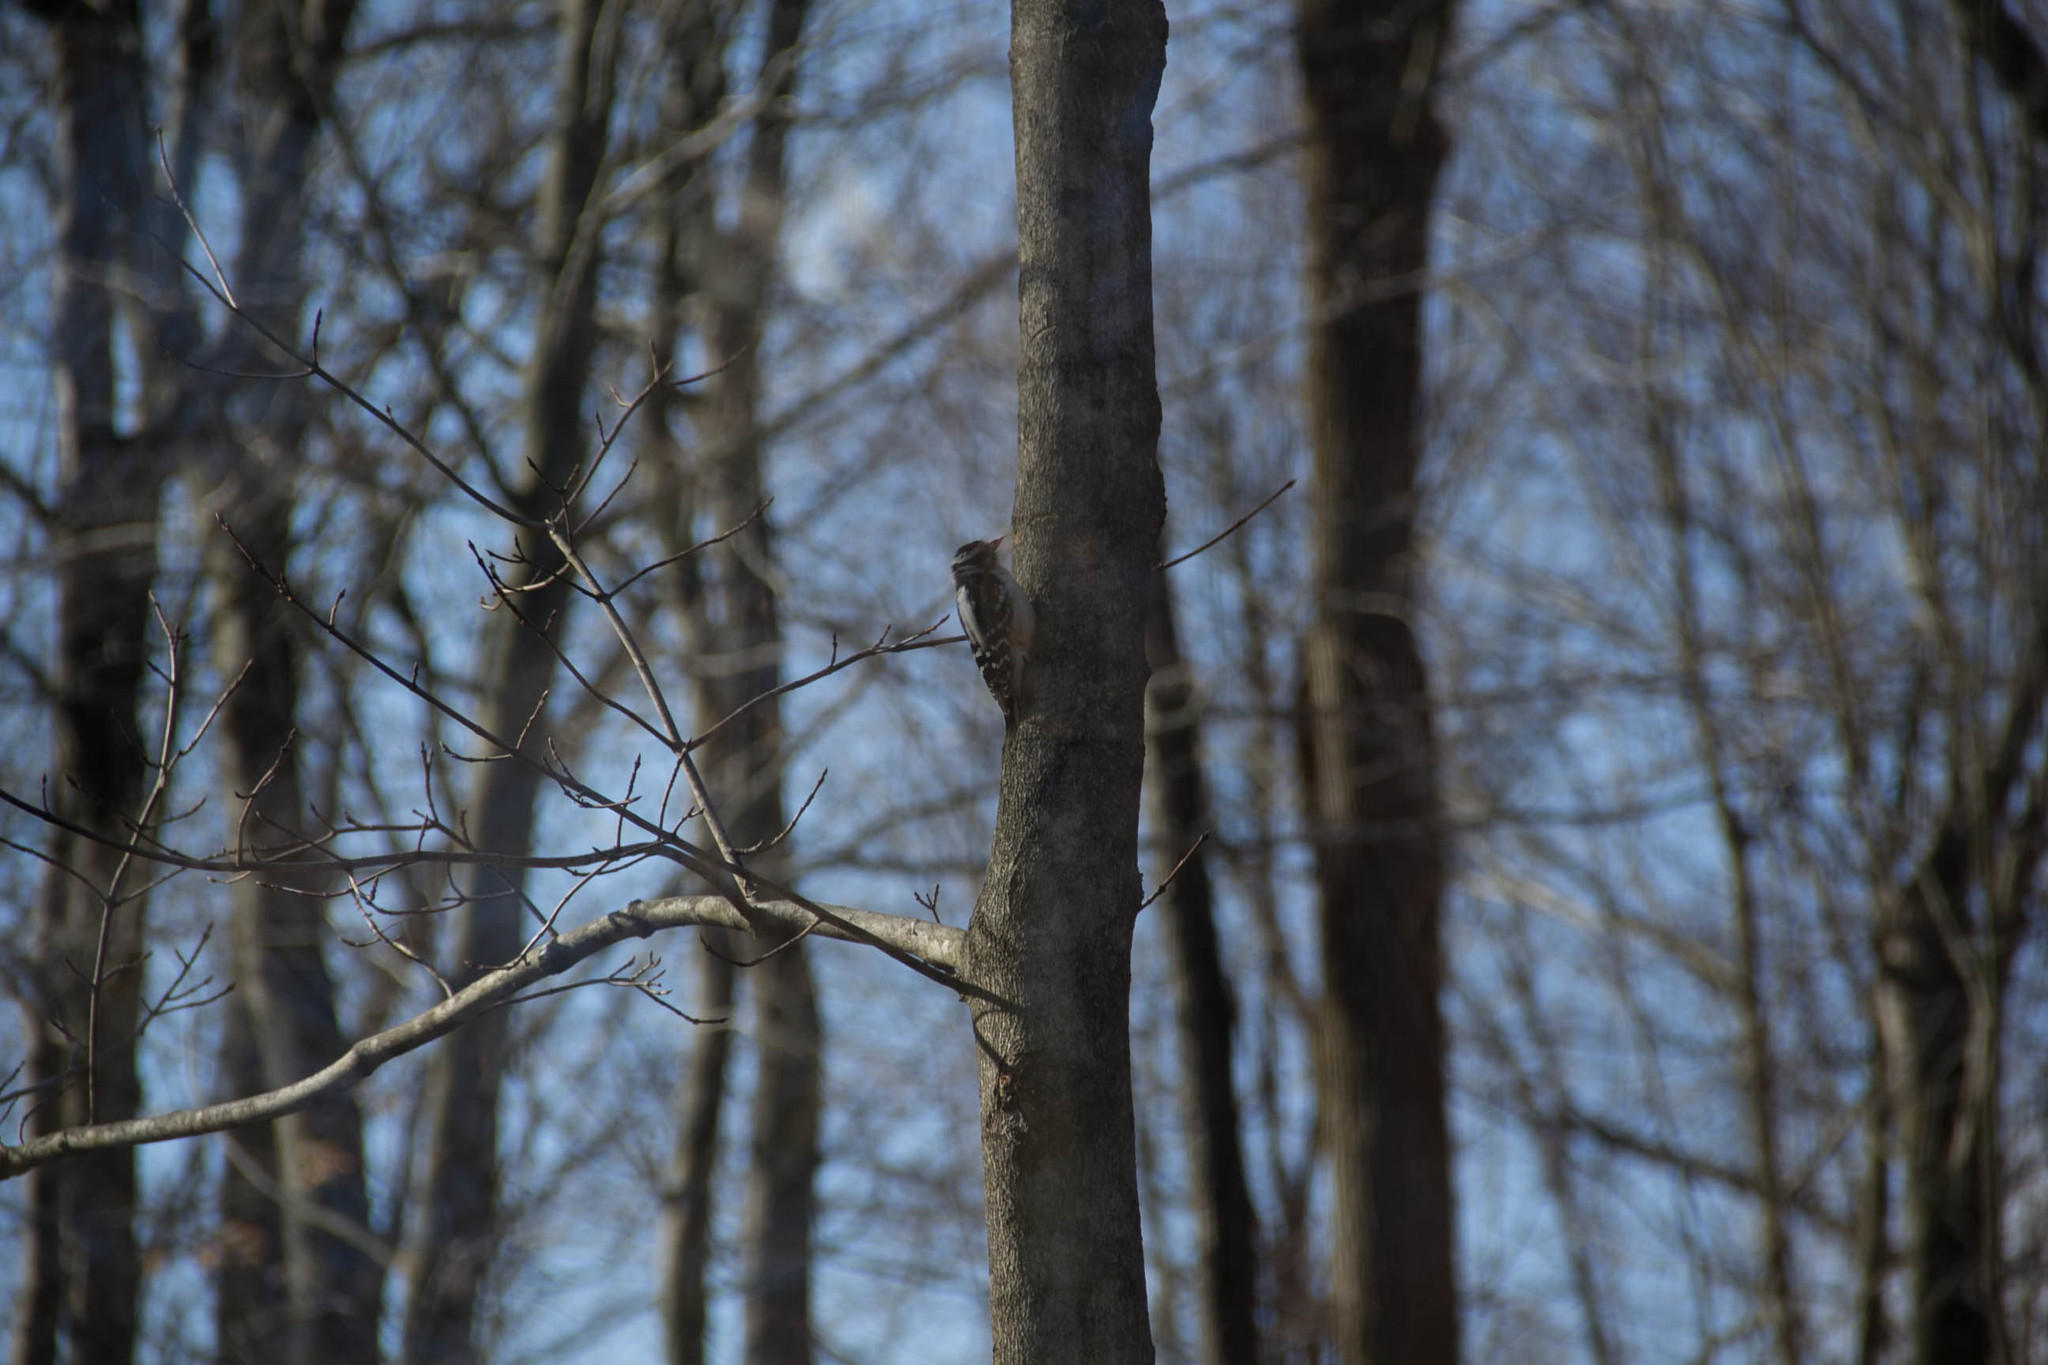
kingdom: Animalia
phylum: Chordata
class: Aves
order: Piciformes
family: Picidae
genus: Dryobates
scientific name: Dryobates pubescens
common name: Downy woodpecker
